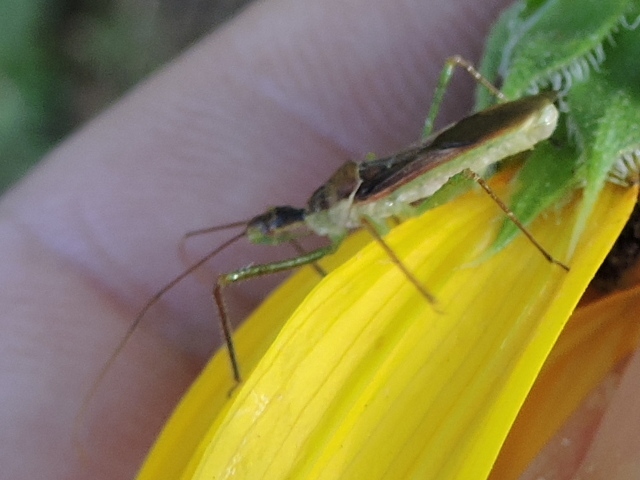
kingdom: Animalia
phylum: Arthropoda
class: Insecta
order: Hemiptera
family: Reduviidae
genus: Zelus
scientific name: Zelus renardii
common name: Assassin bug
